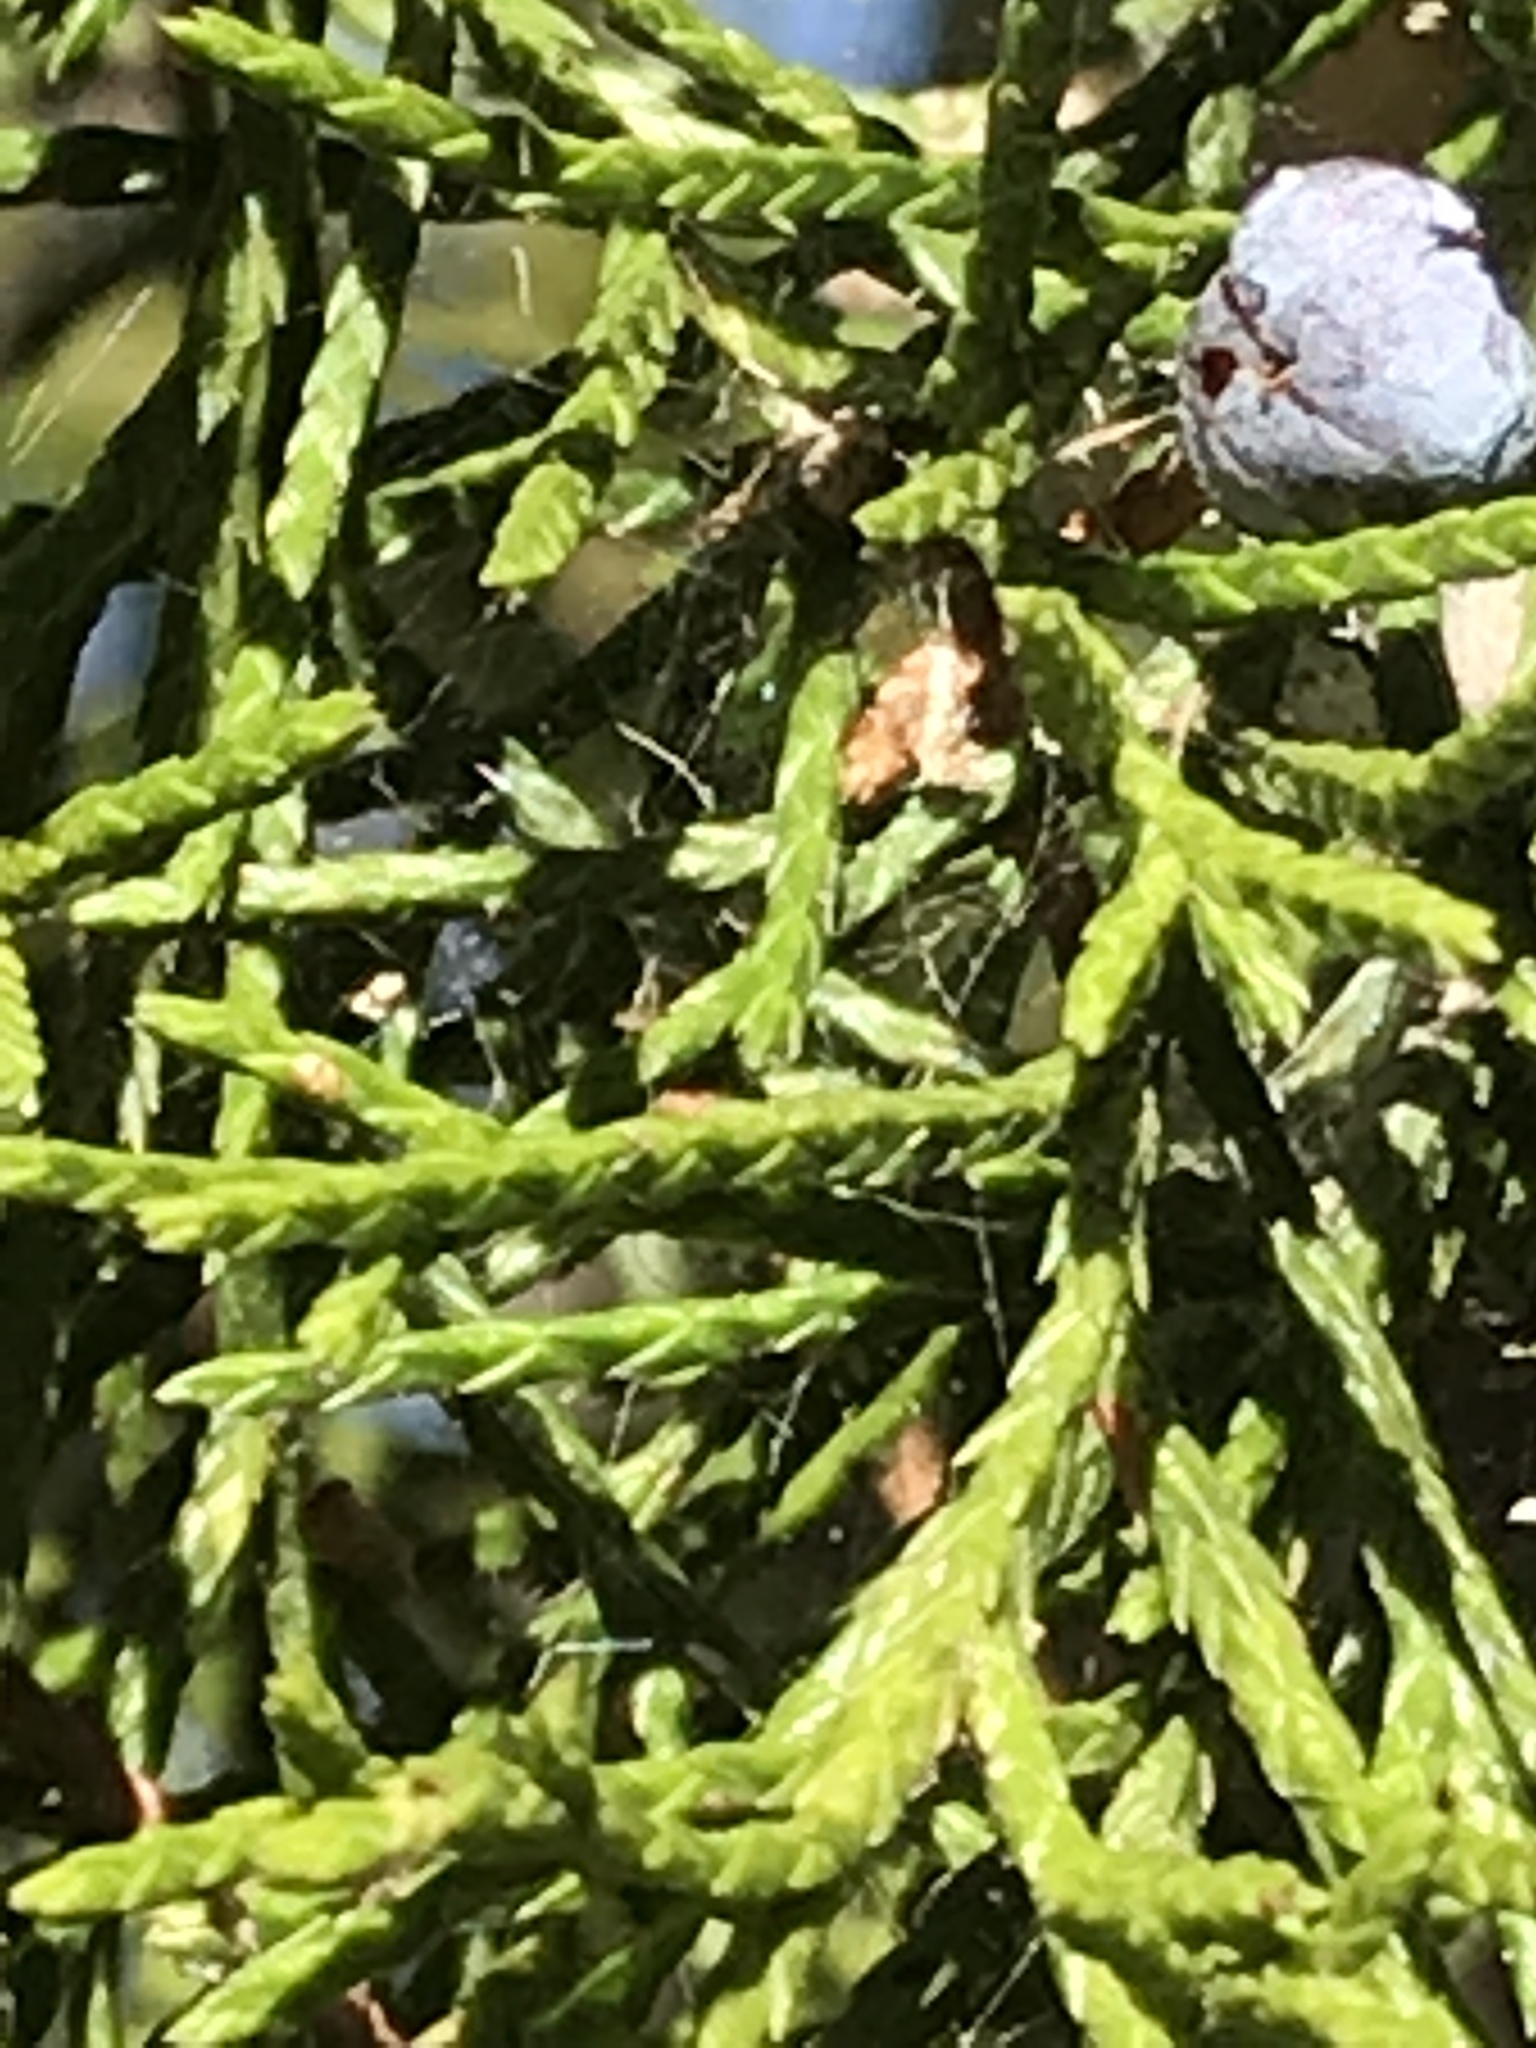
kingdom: Plantae
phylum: Tracheophyta
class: Pinopsida
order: Pinales
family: Cupressaceae
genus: Juniperus
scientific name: Juniperus virginiana
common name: Red juniper
